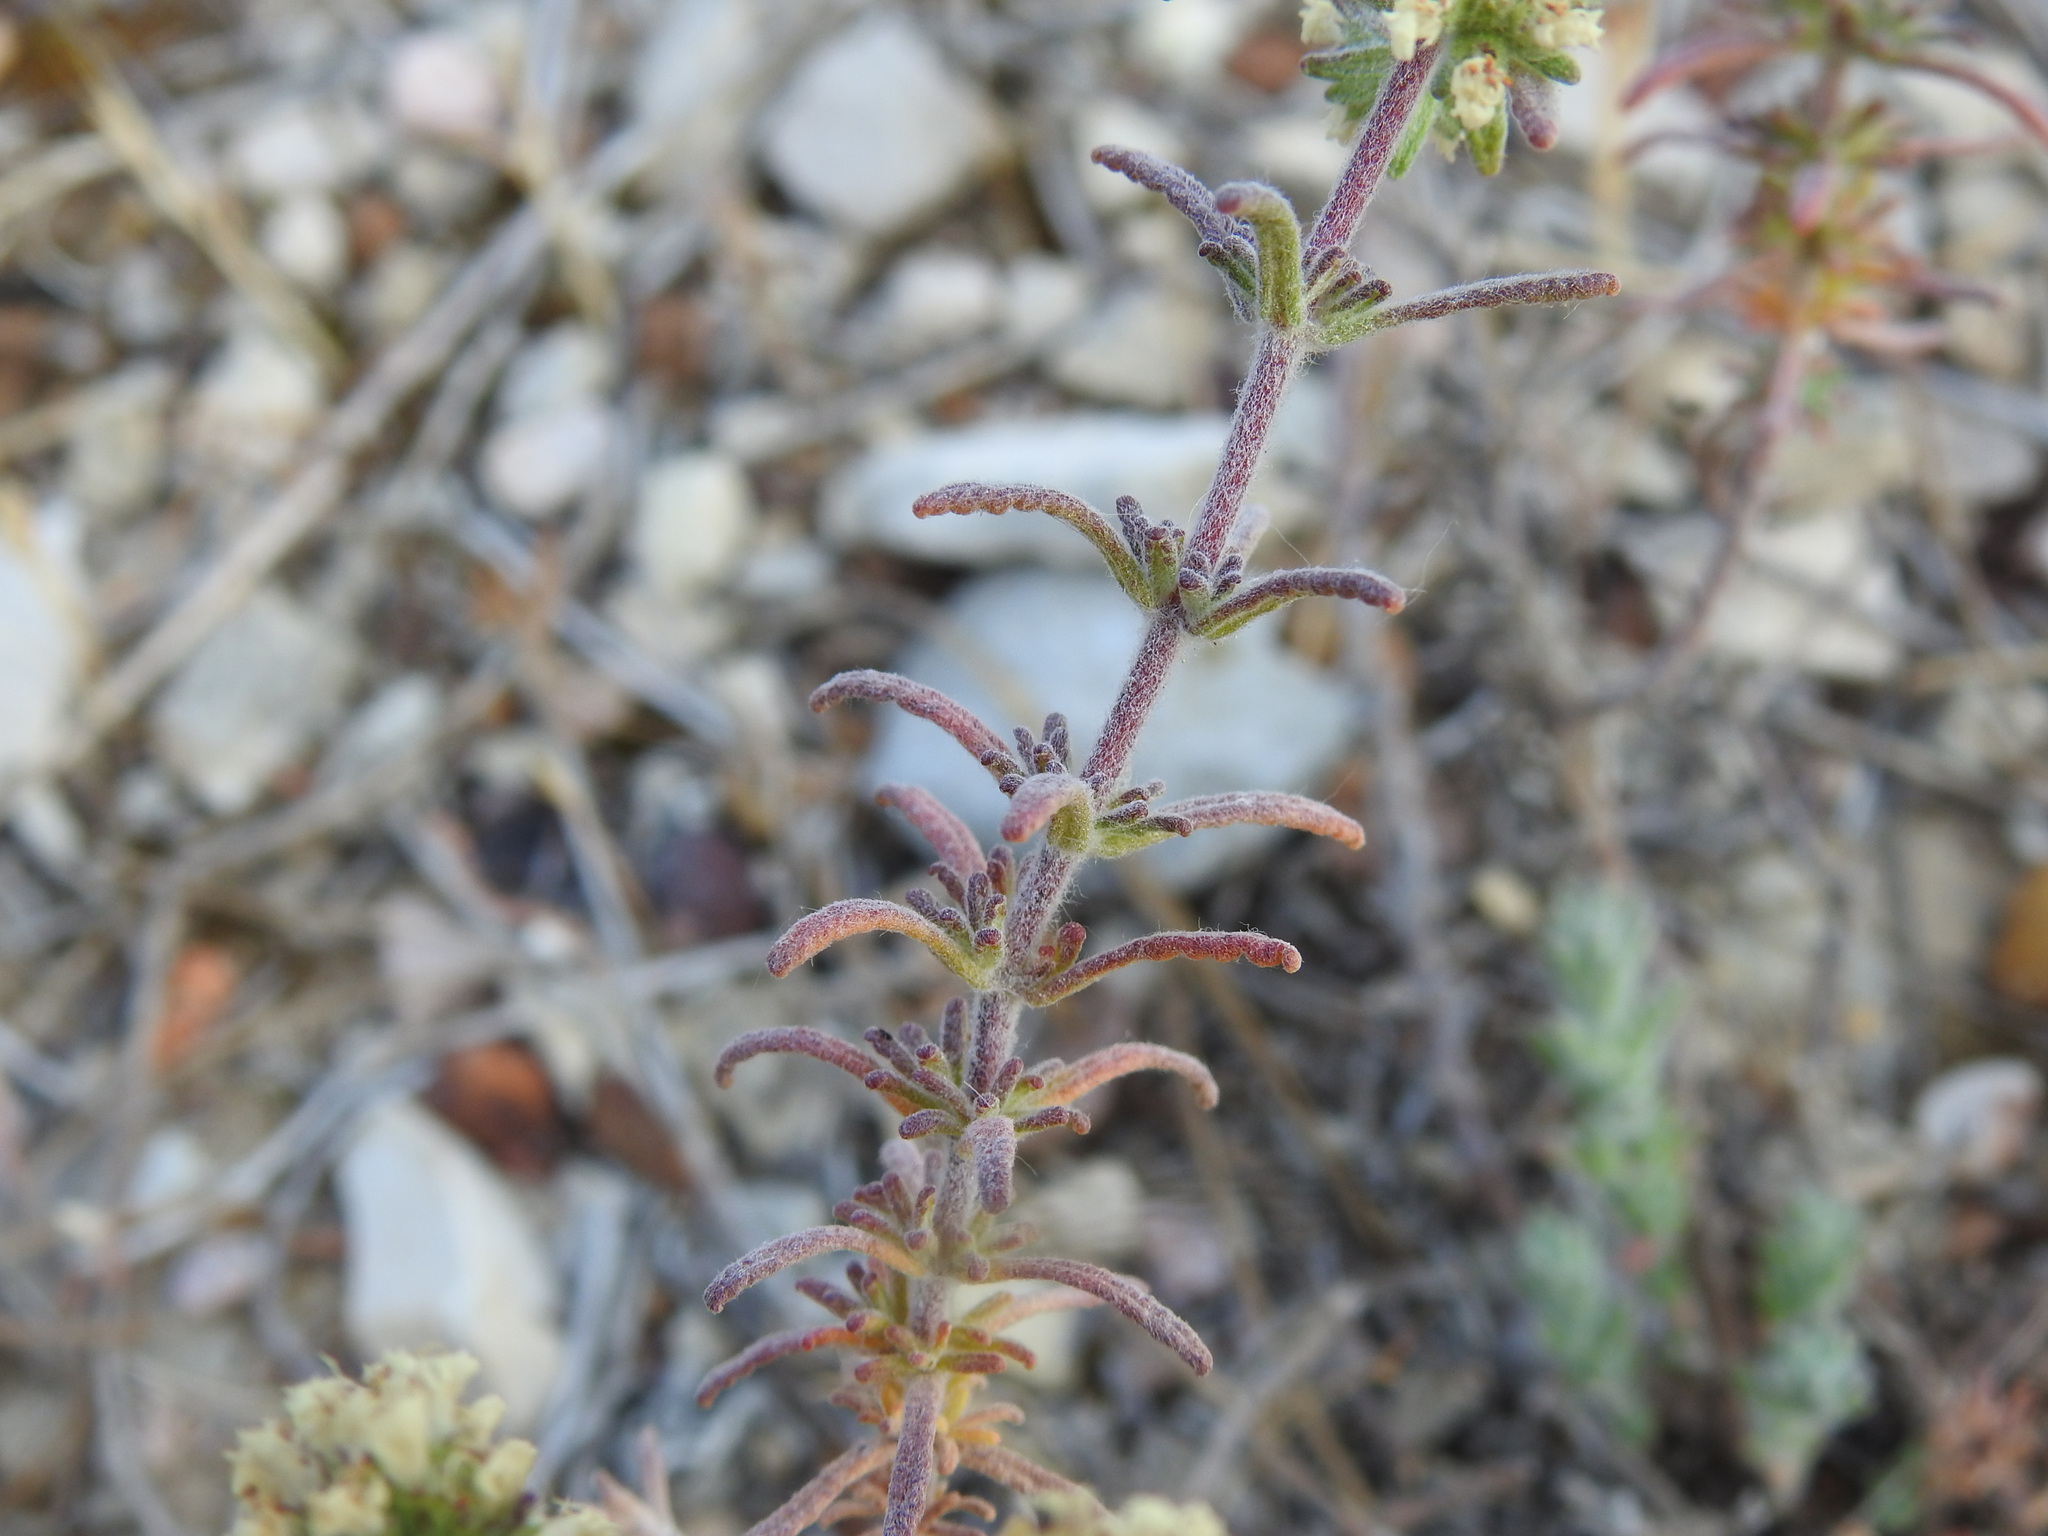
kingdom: Plantae
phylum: Tracheophyta
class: Magnoliopsida
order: Lamiales
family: Lamiaceae
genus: Teucrium
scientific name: Teucrium algarbiense
